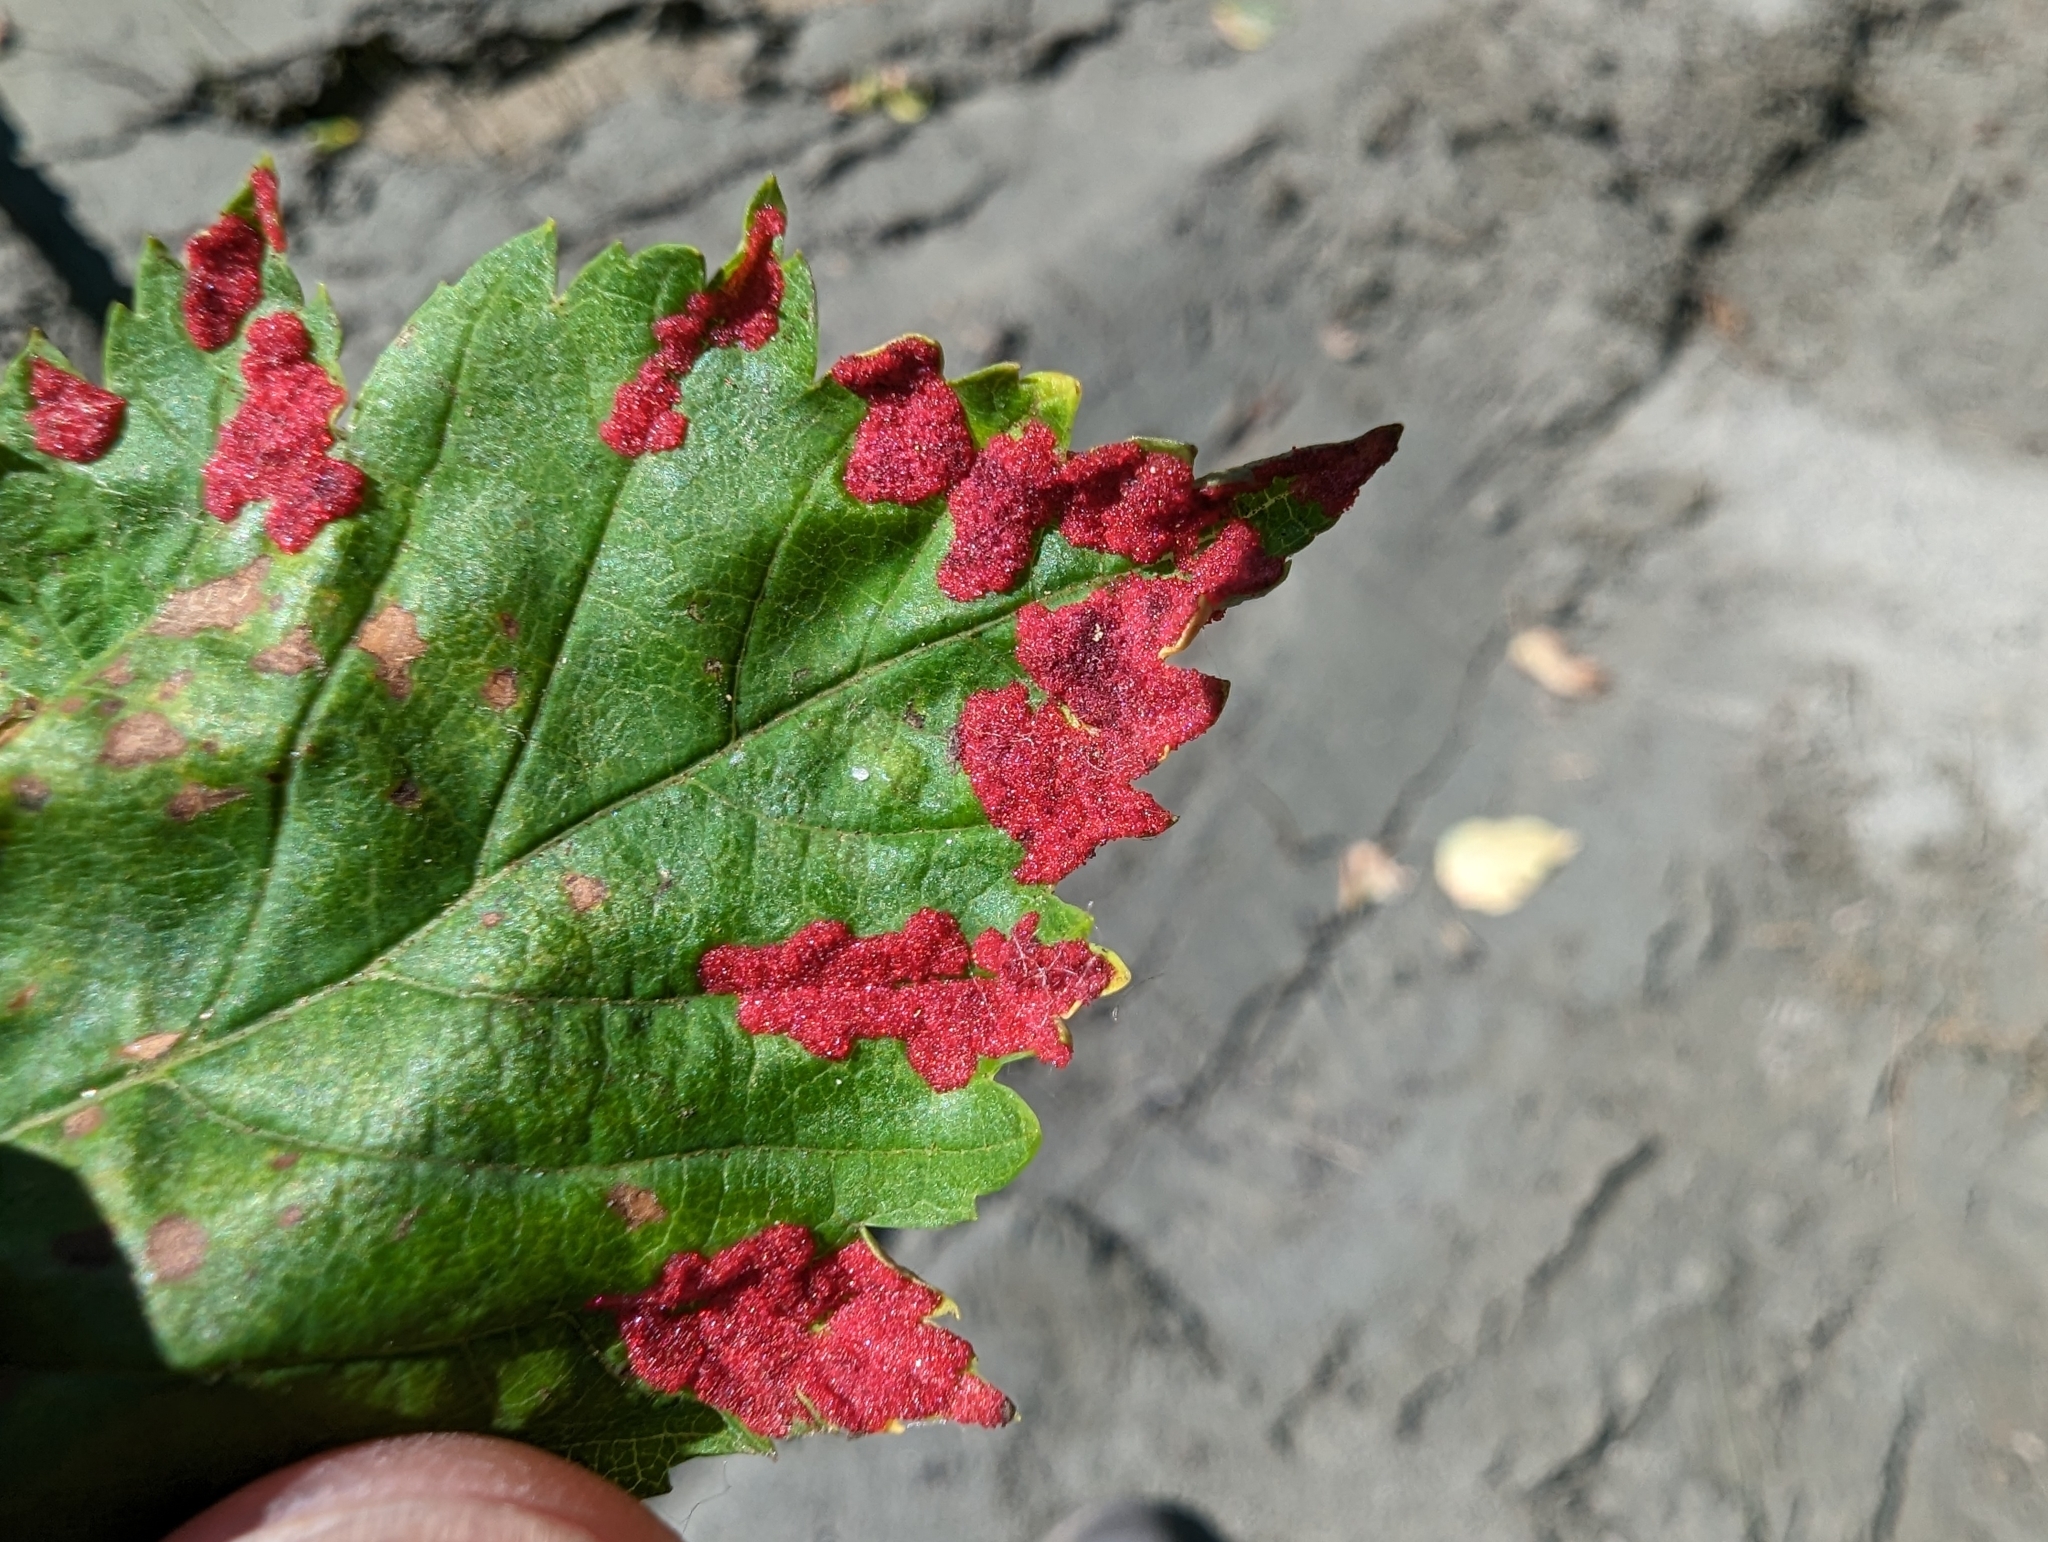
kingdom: Animalia
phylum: Arthropoda
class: Arachnida
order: Trombidiformes
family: Eriophyidae
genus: Aceria
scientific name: Aceria
